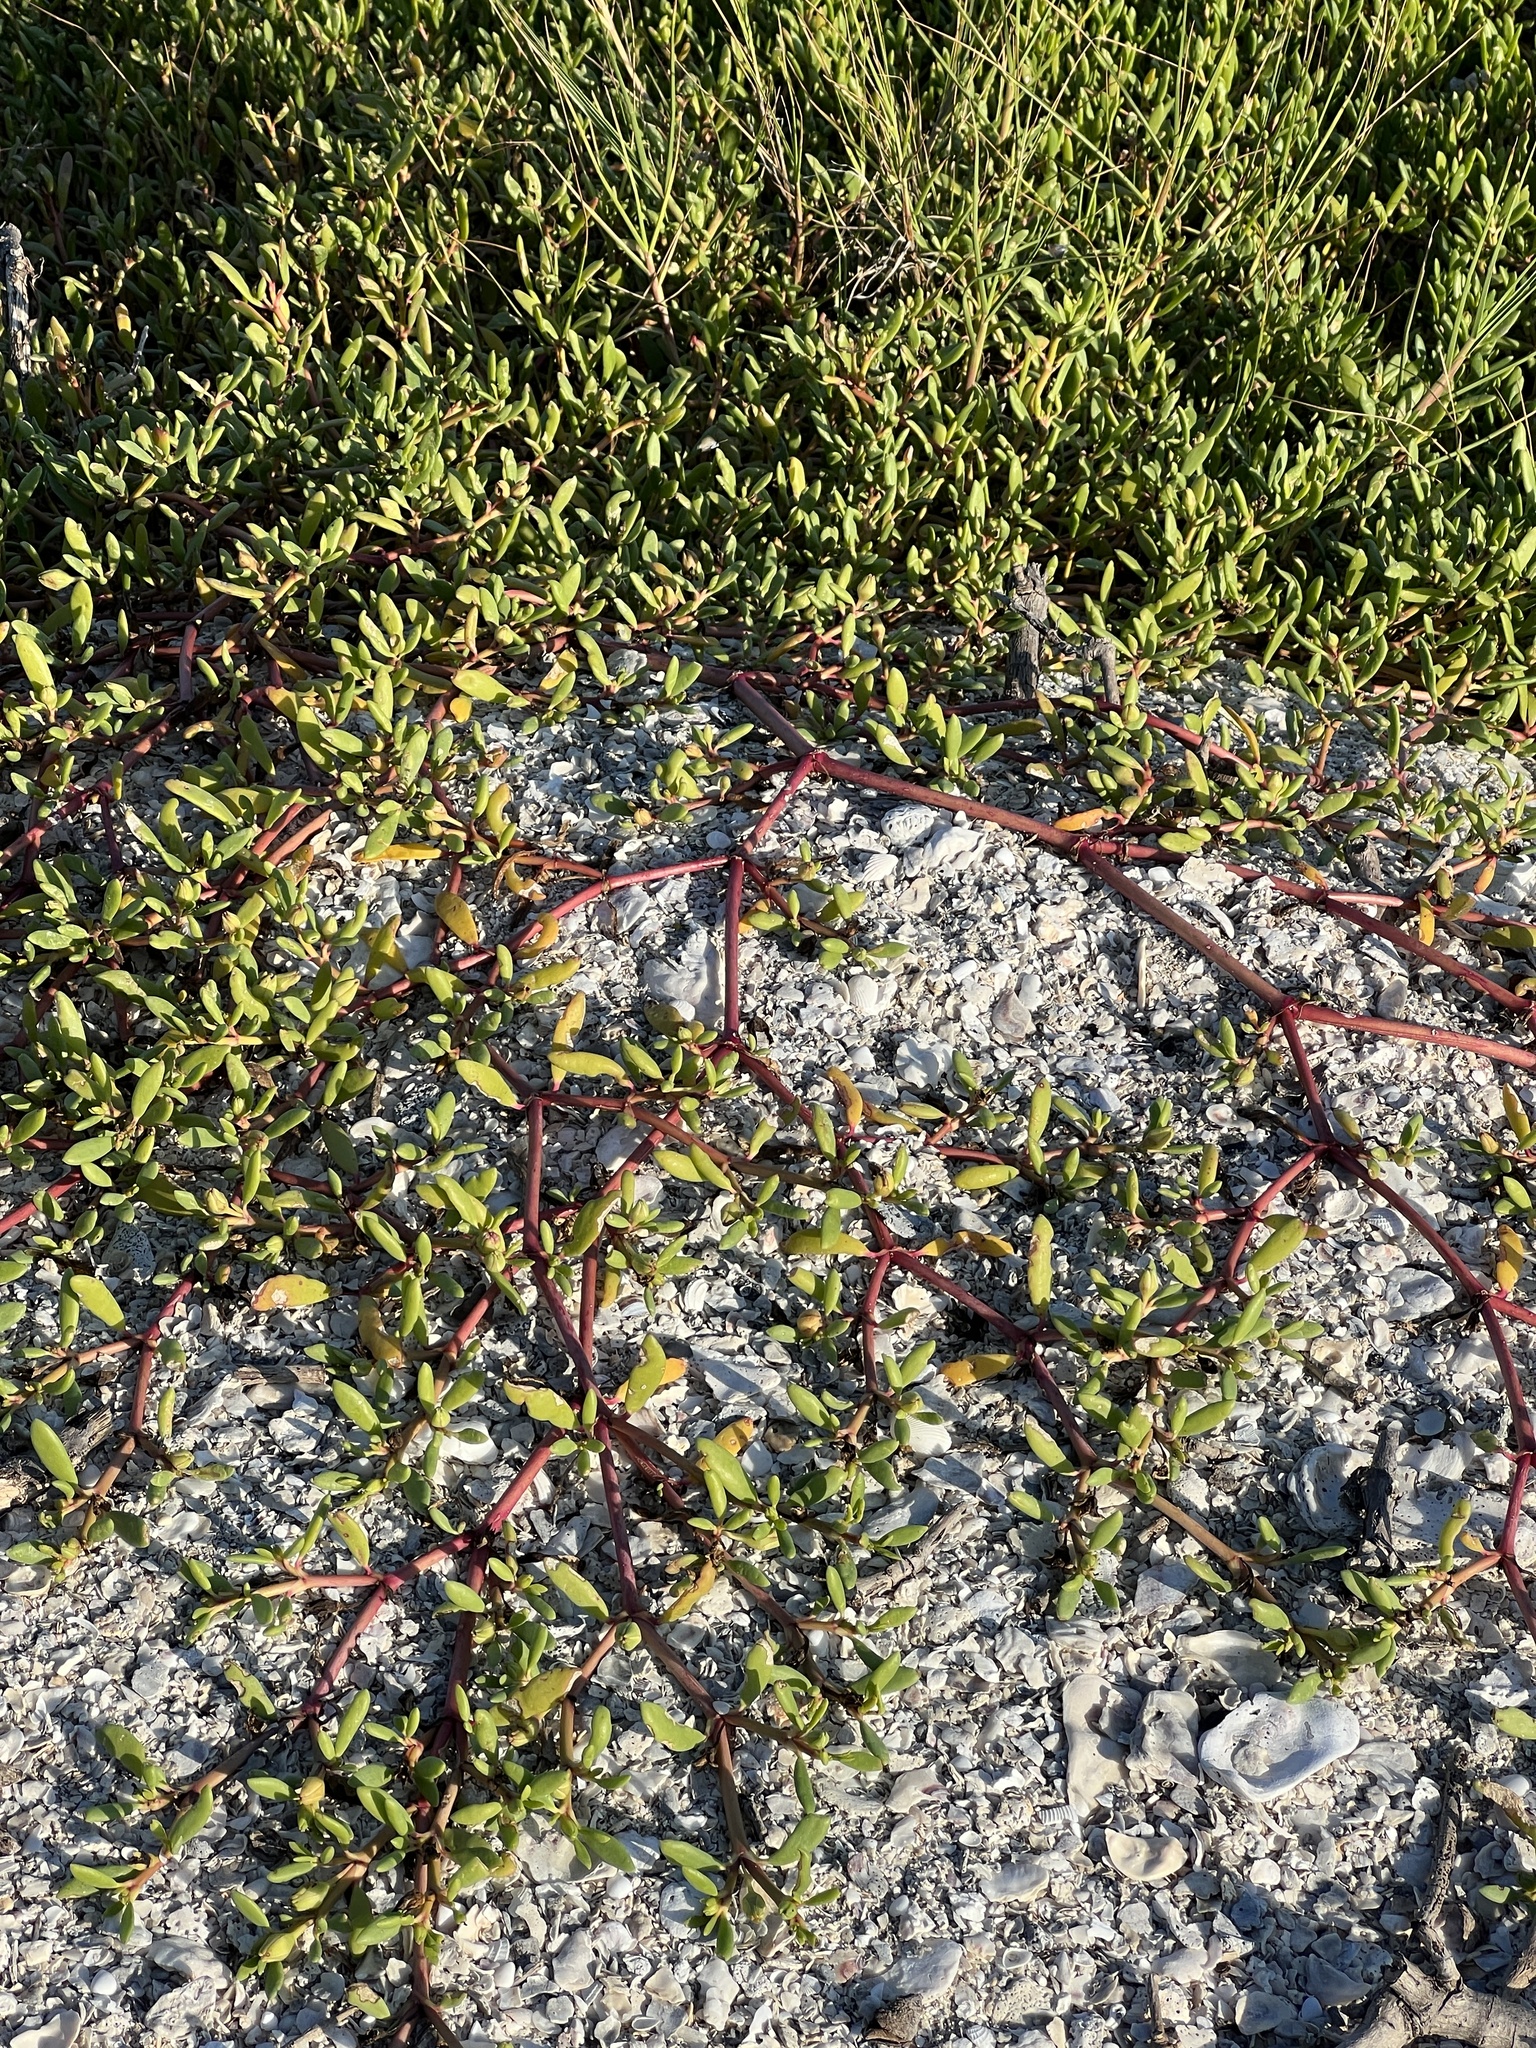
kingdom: Plantae
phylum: Tracheophyta
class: Magnoliopsida
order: Caryophyllales
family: Aizoaceae
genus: Sesuvium
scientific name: Sesuvium portulacastrum
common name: Sea-purslane
